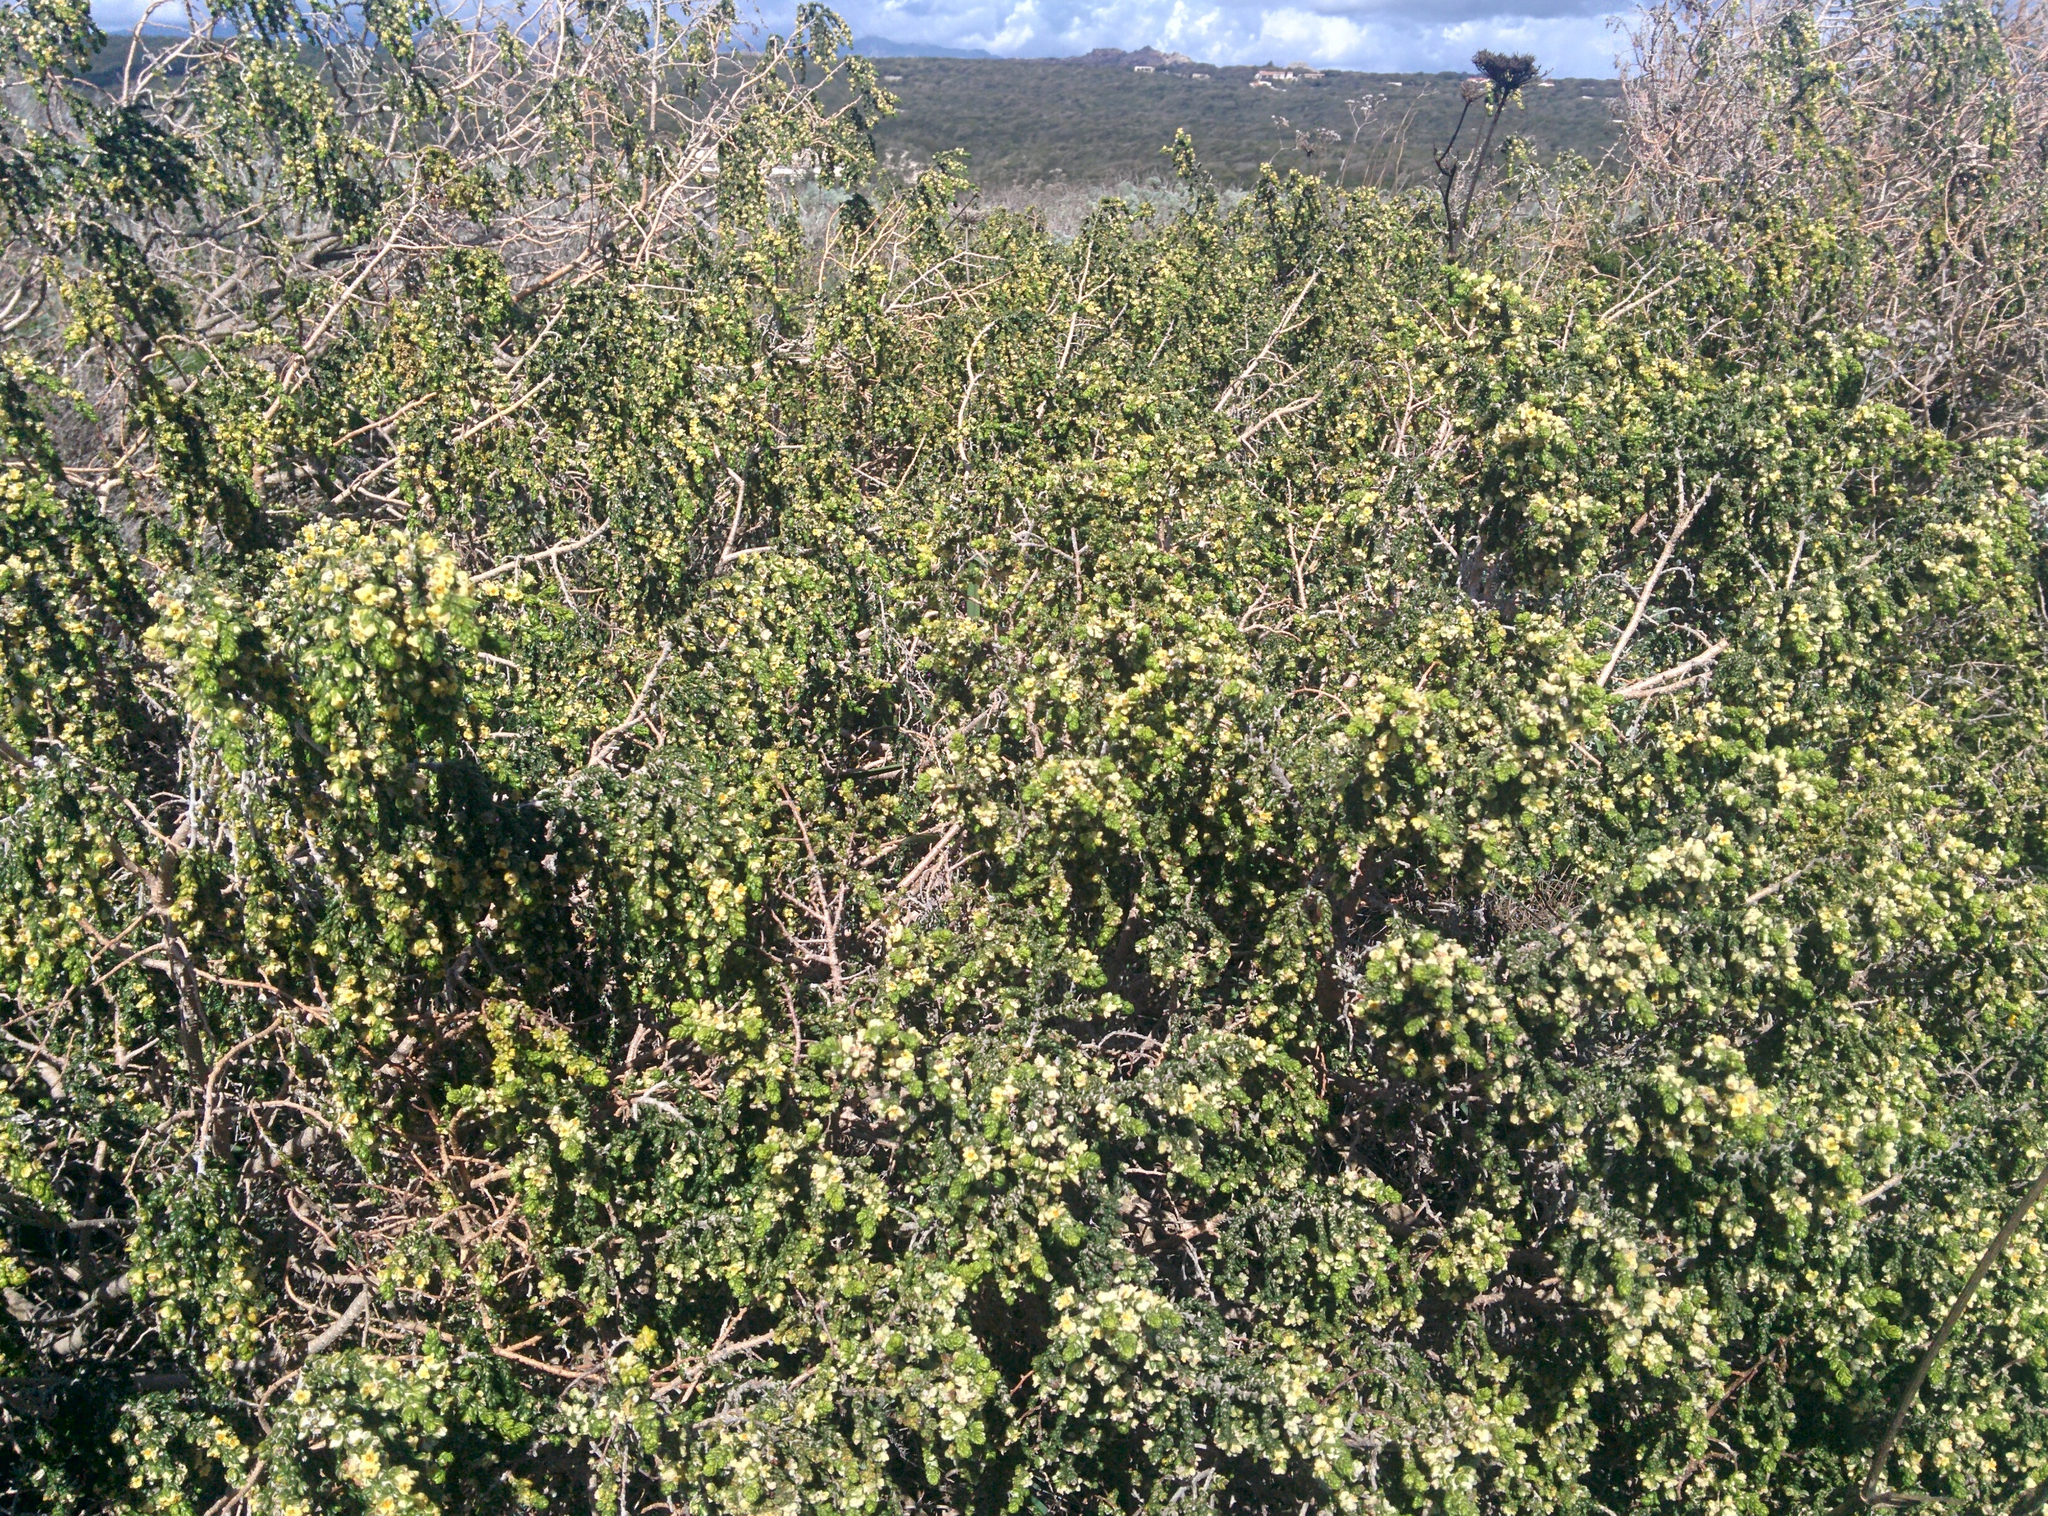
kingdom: Plantae
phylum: Tracheophyta
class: Magnoliopsida
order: Malvales
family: Thymelaeaceae
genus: Thymelaea
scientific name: Thymelaea hirsuta
